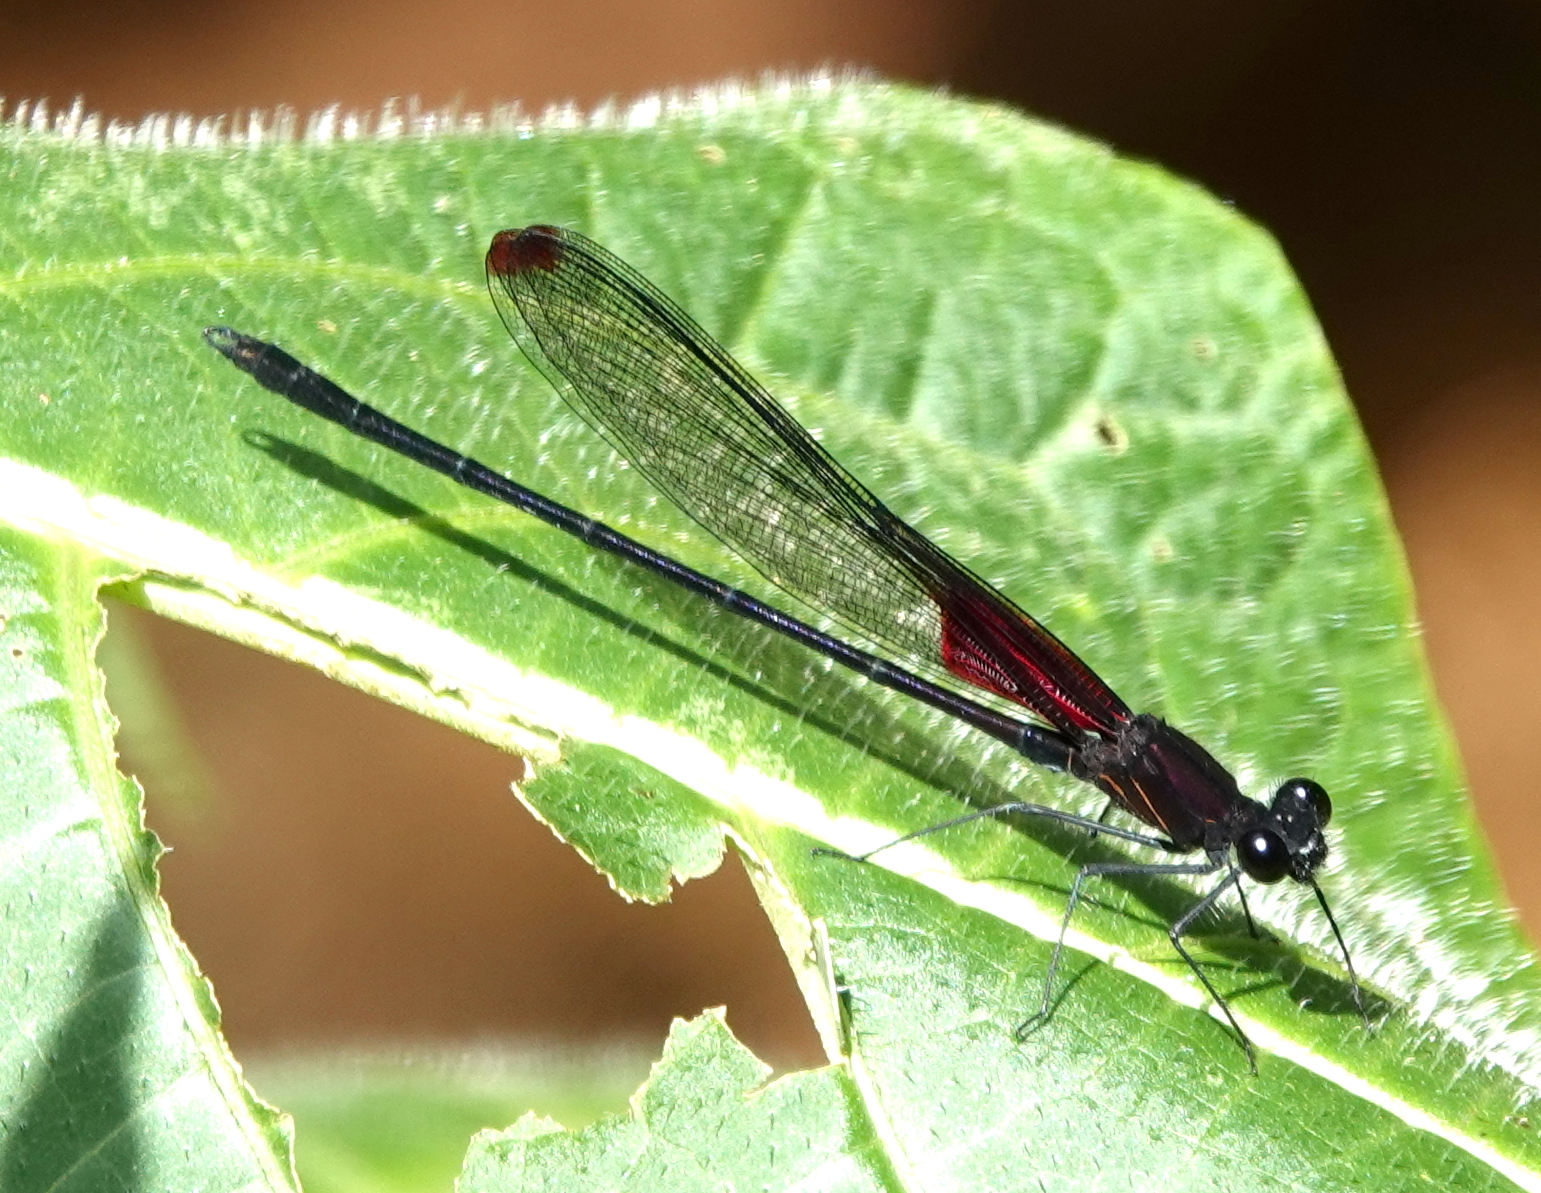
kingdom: Animalia
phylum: Arthropoda
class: Insecta
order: Odonata
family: Calopterygidae
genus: Hetaerina
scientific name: Hetaerina duplex
